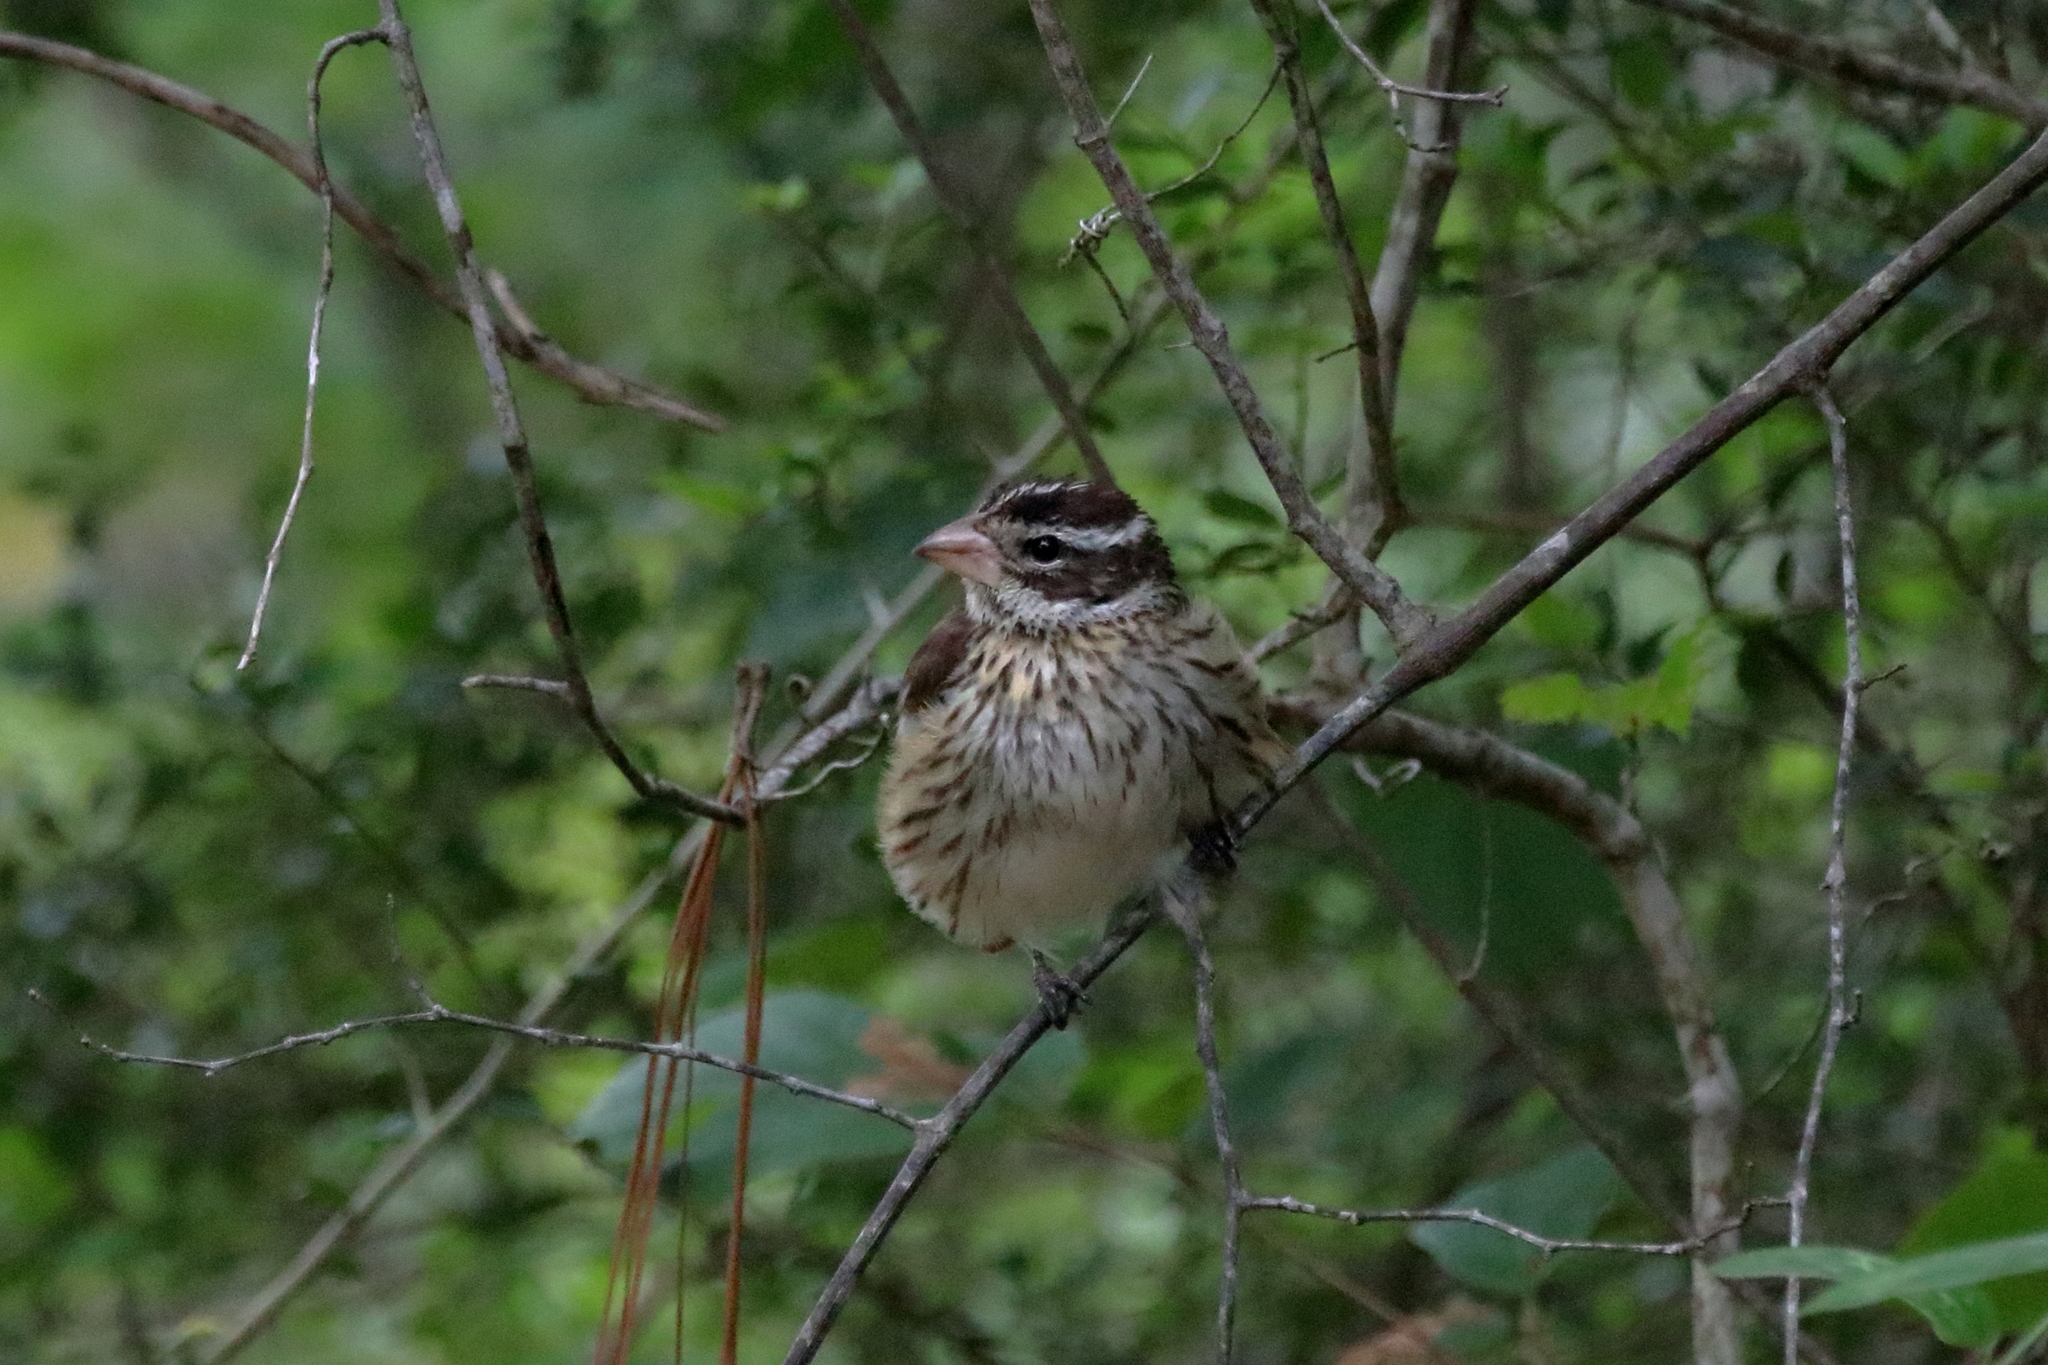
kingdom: Animalia
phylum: Chordata
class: Aves
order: Passeriformes
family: Cardinalidae
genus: Pheucticus
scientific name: Pheucticus ludovicianus
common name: Rose-breasted grosbeak
